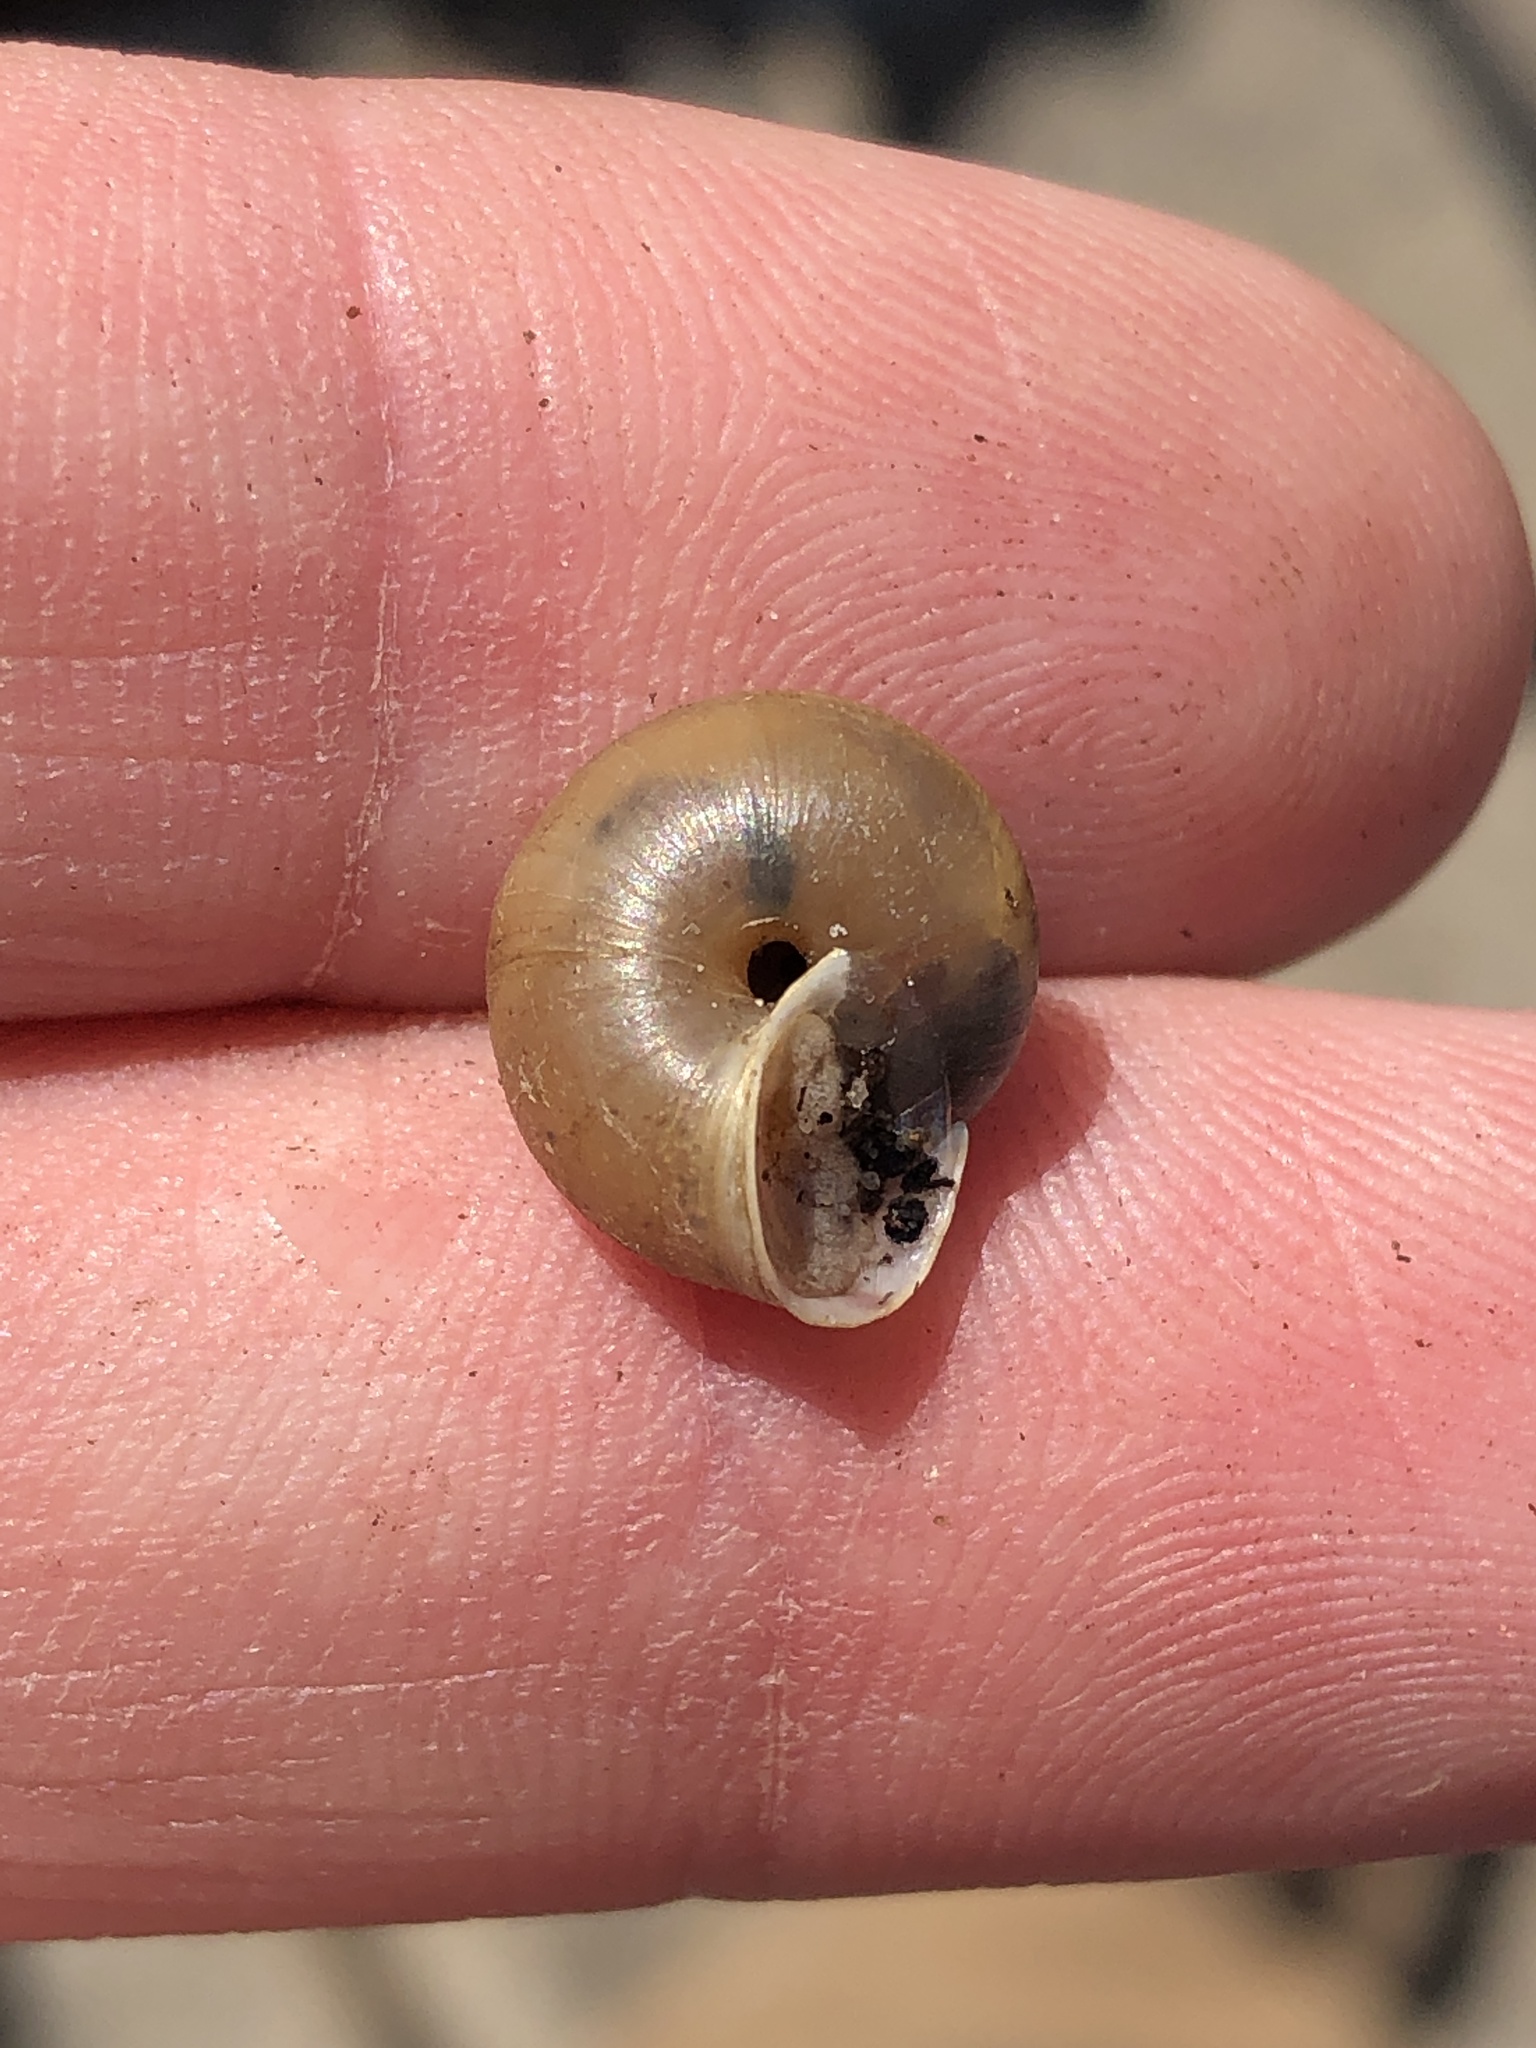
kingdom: Animalia
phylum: Mollusca
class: Gastropoda
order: Stylommatophora
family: Camaenidae
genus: Bradybaena
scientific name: Bradybaena similaris
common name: Asian trampsnail
